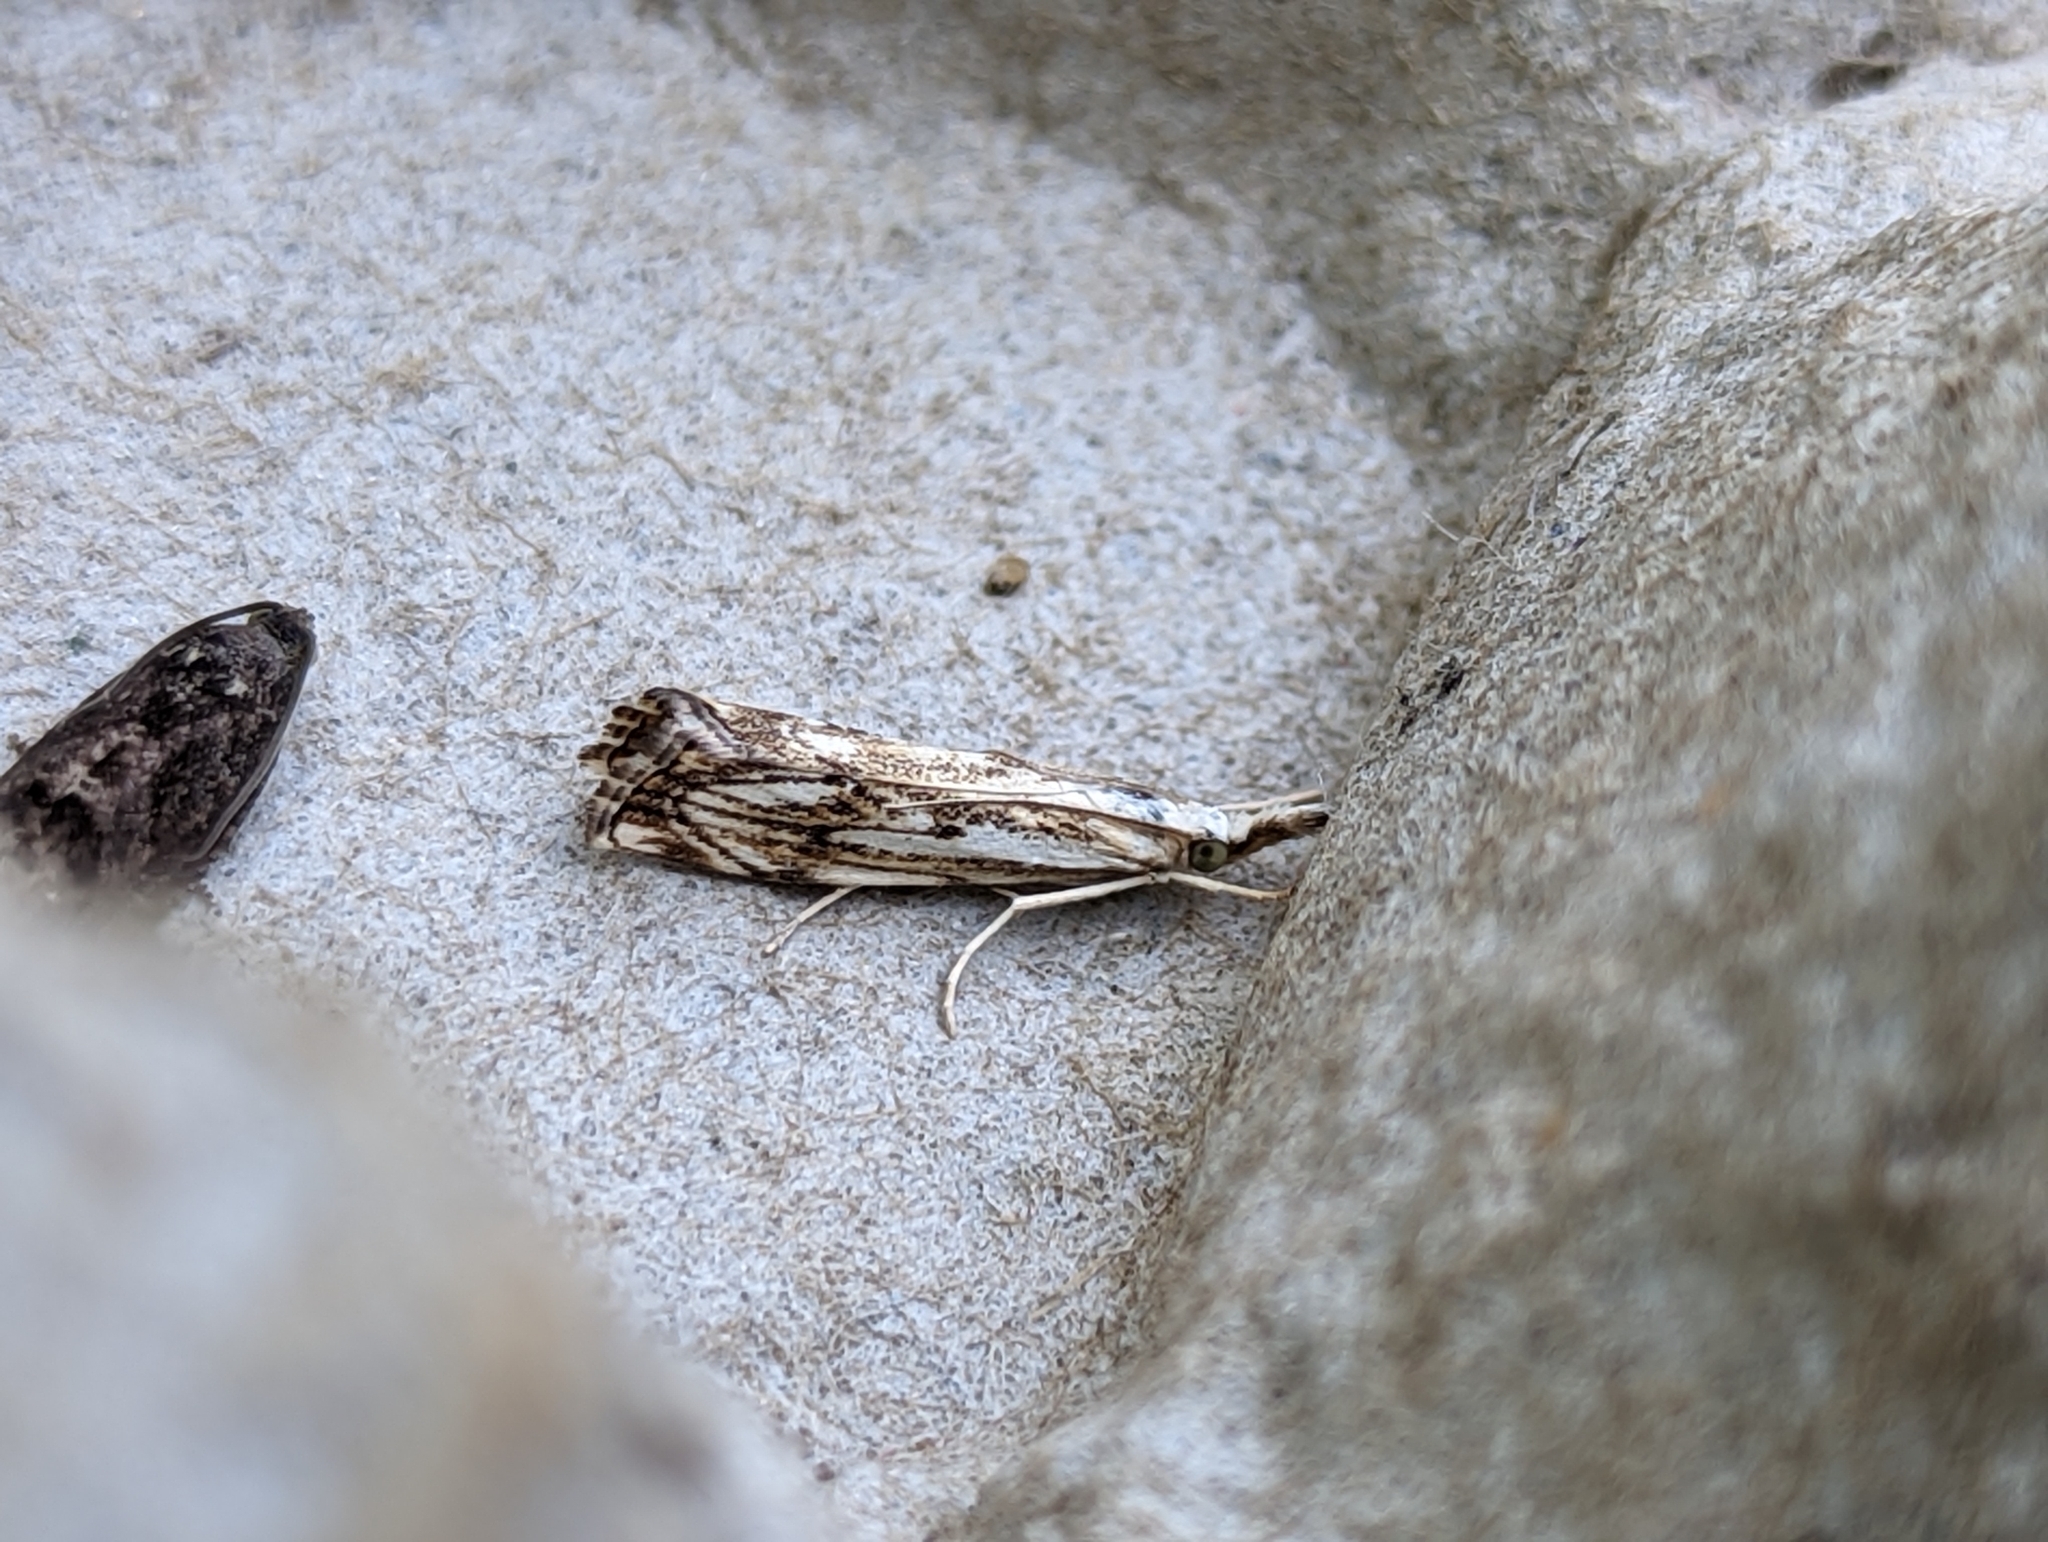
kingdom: Animalia
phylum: Arthropoda
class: Insecta
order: Lepidoptera
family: Crambidae
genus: Catoptria
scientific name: Catoptria falsella
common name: Chequered grass-veneer
